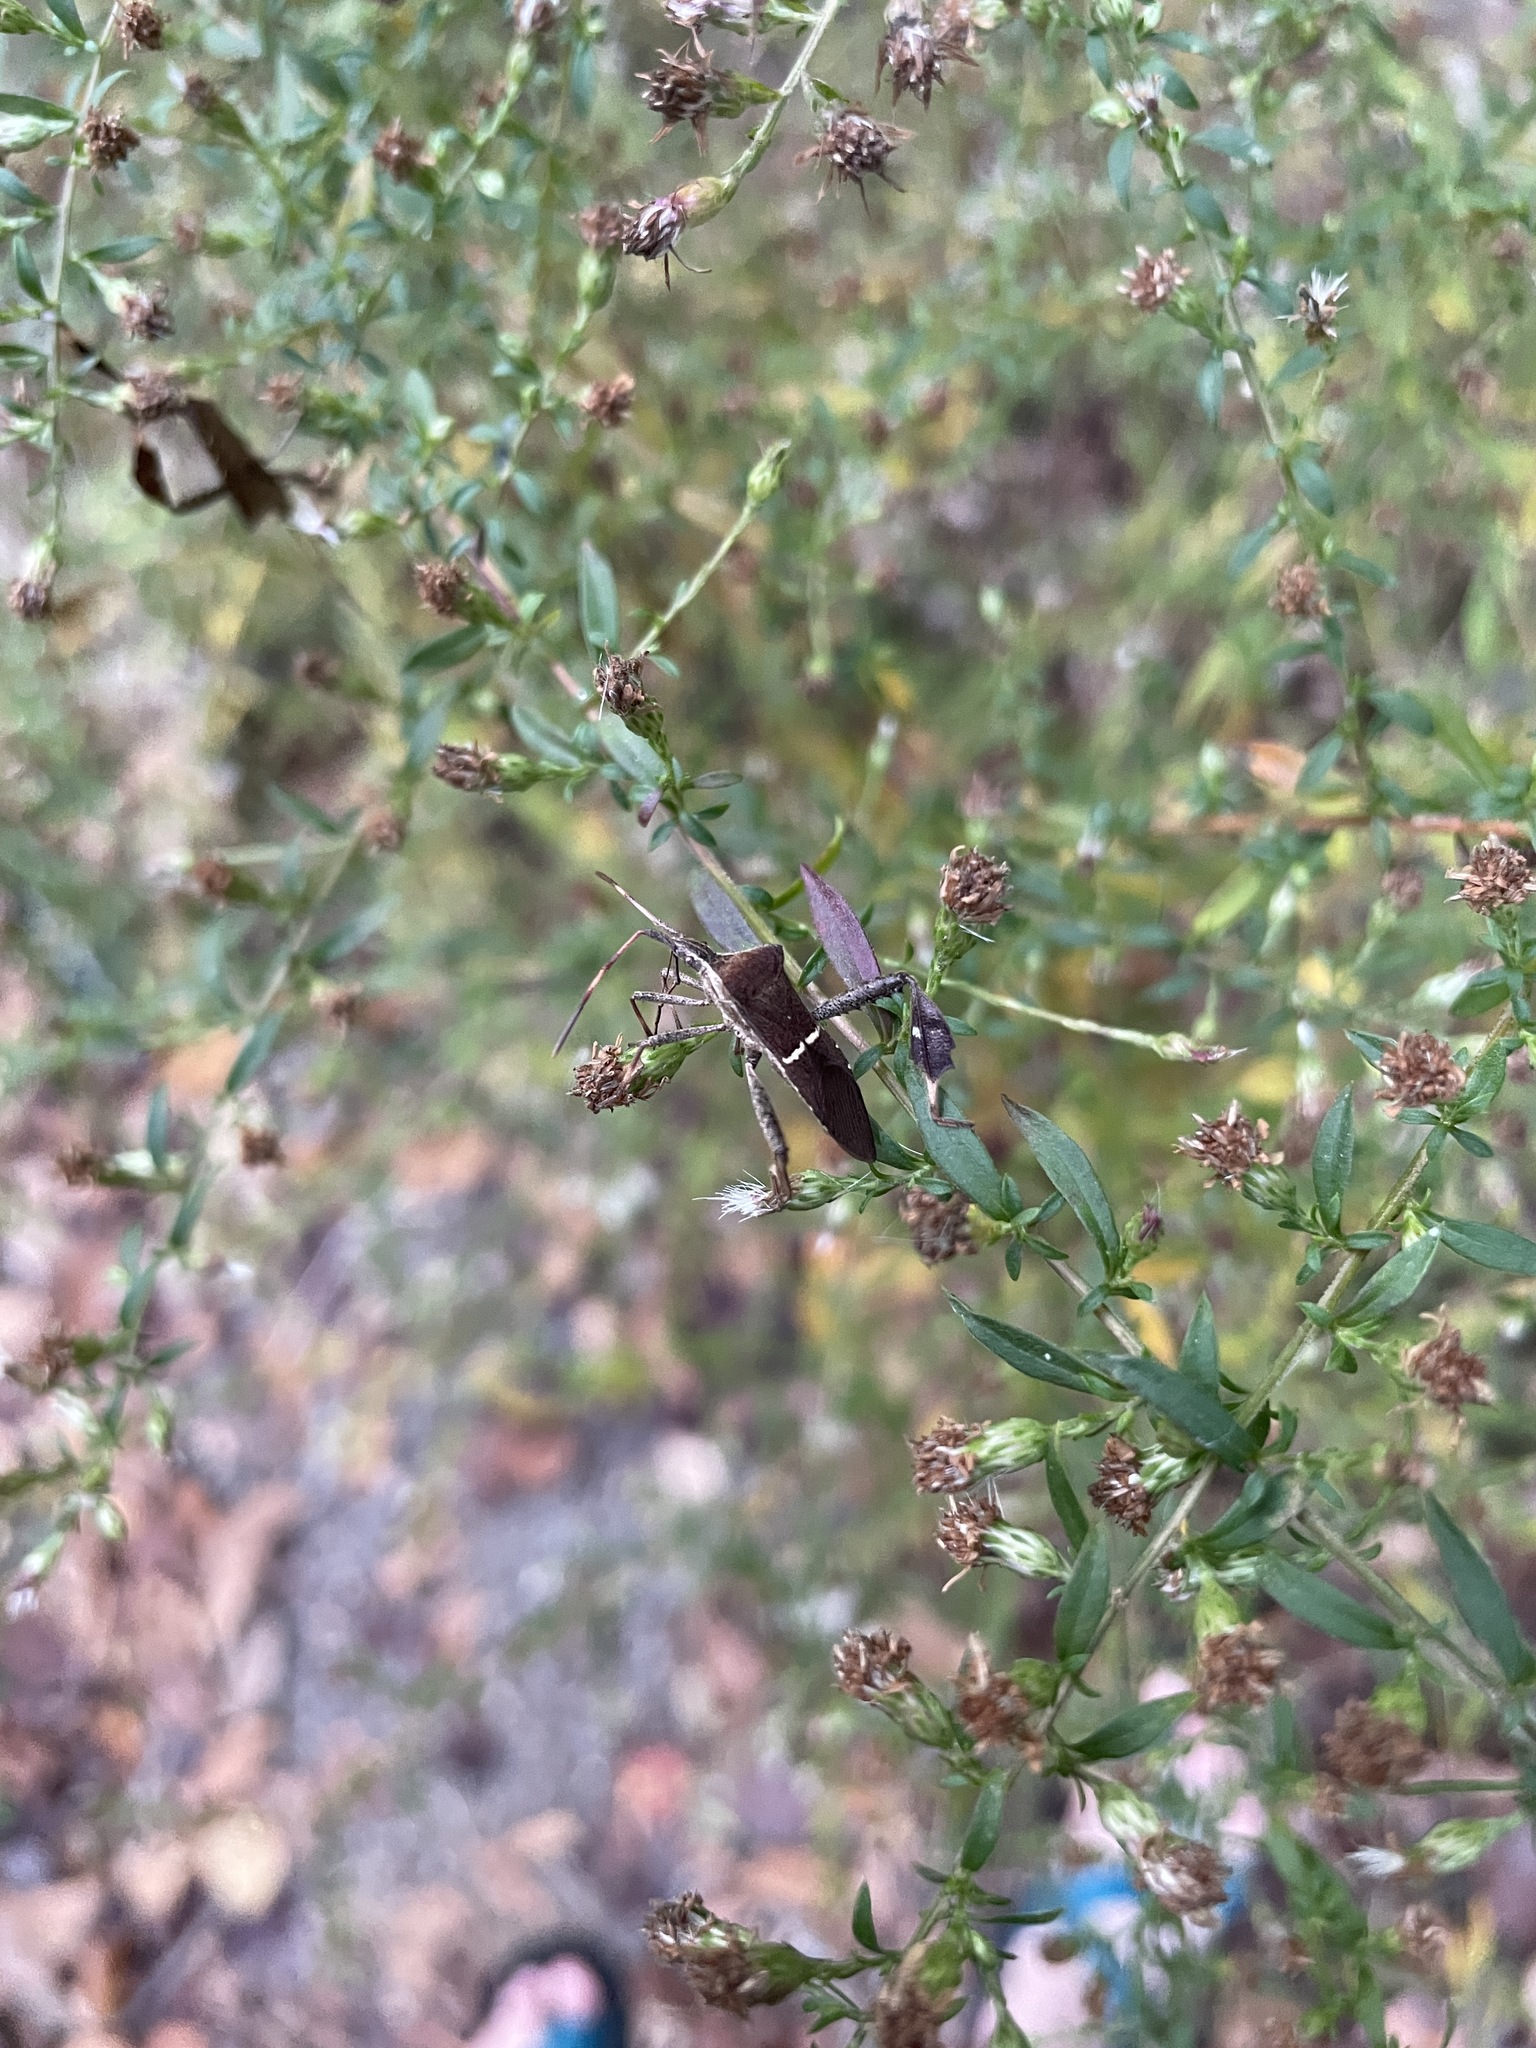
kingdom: Animalia
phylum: Arthropoda
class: Insecta
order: Hemiptera
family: Coreidae
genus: Leptoglossus
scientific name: Leptoglossus phyllopus
